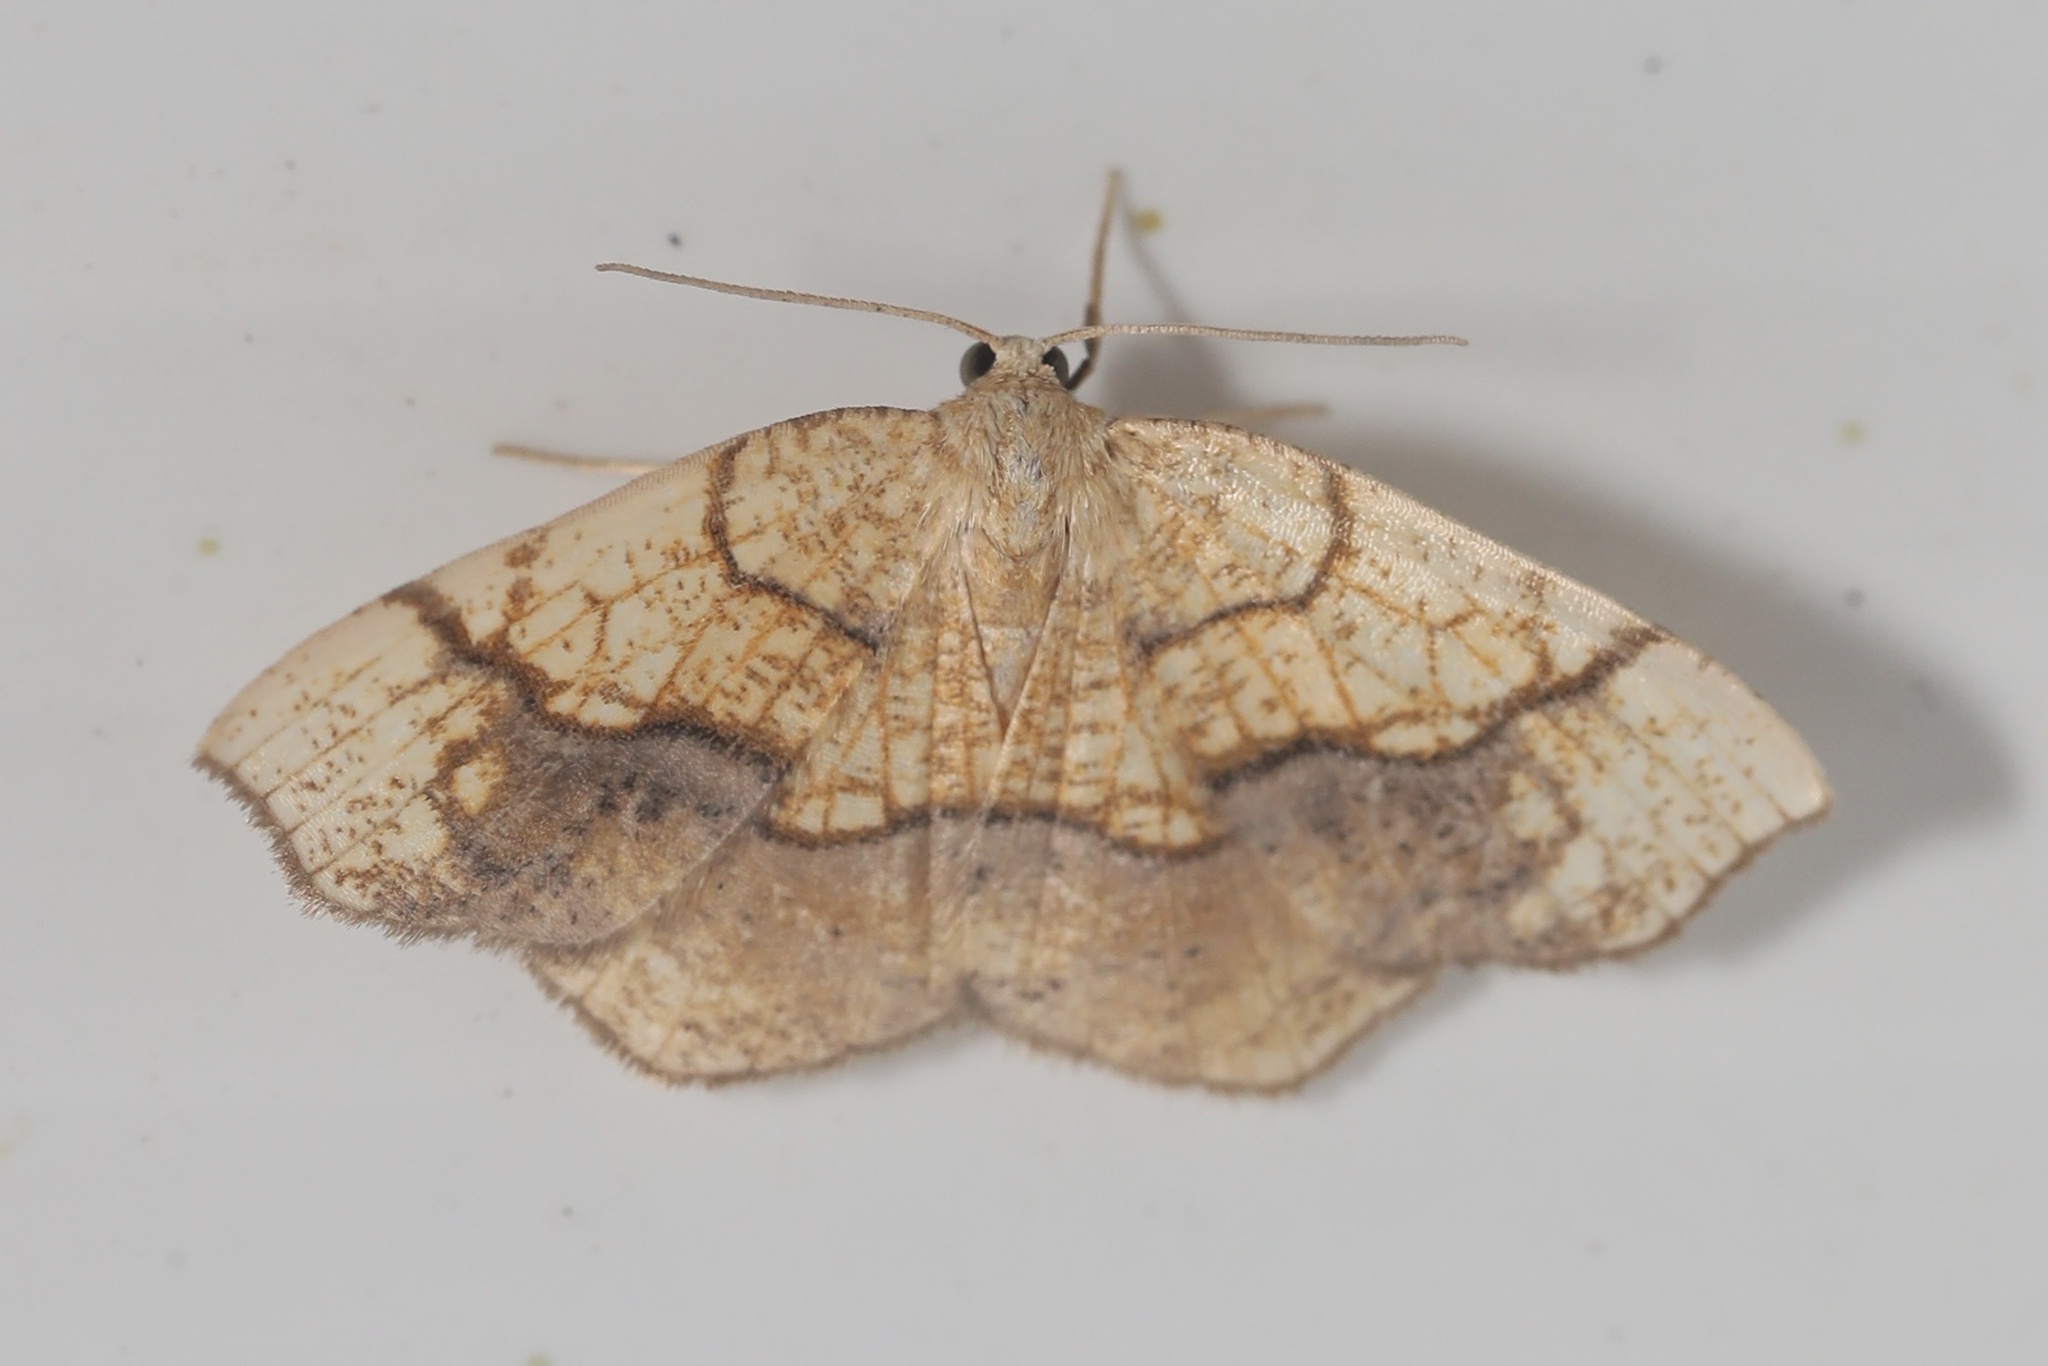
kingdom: Animalia
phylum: Arthropoda
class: Insecta
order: Lepidoptera
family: Geometridae
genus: Nematocampa
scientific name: Nematocampa resistaria
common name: Horned spanworm moth
